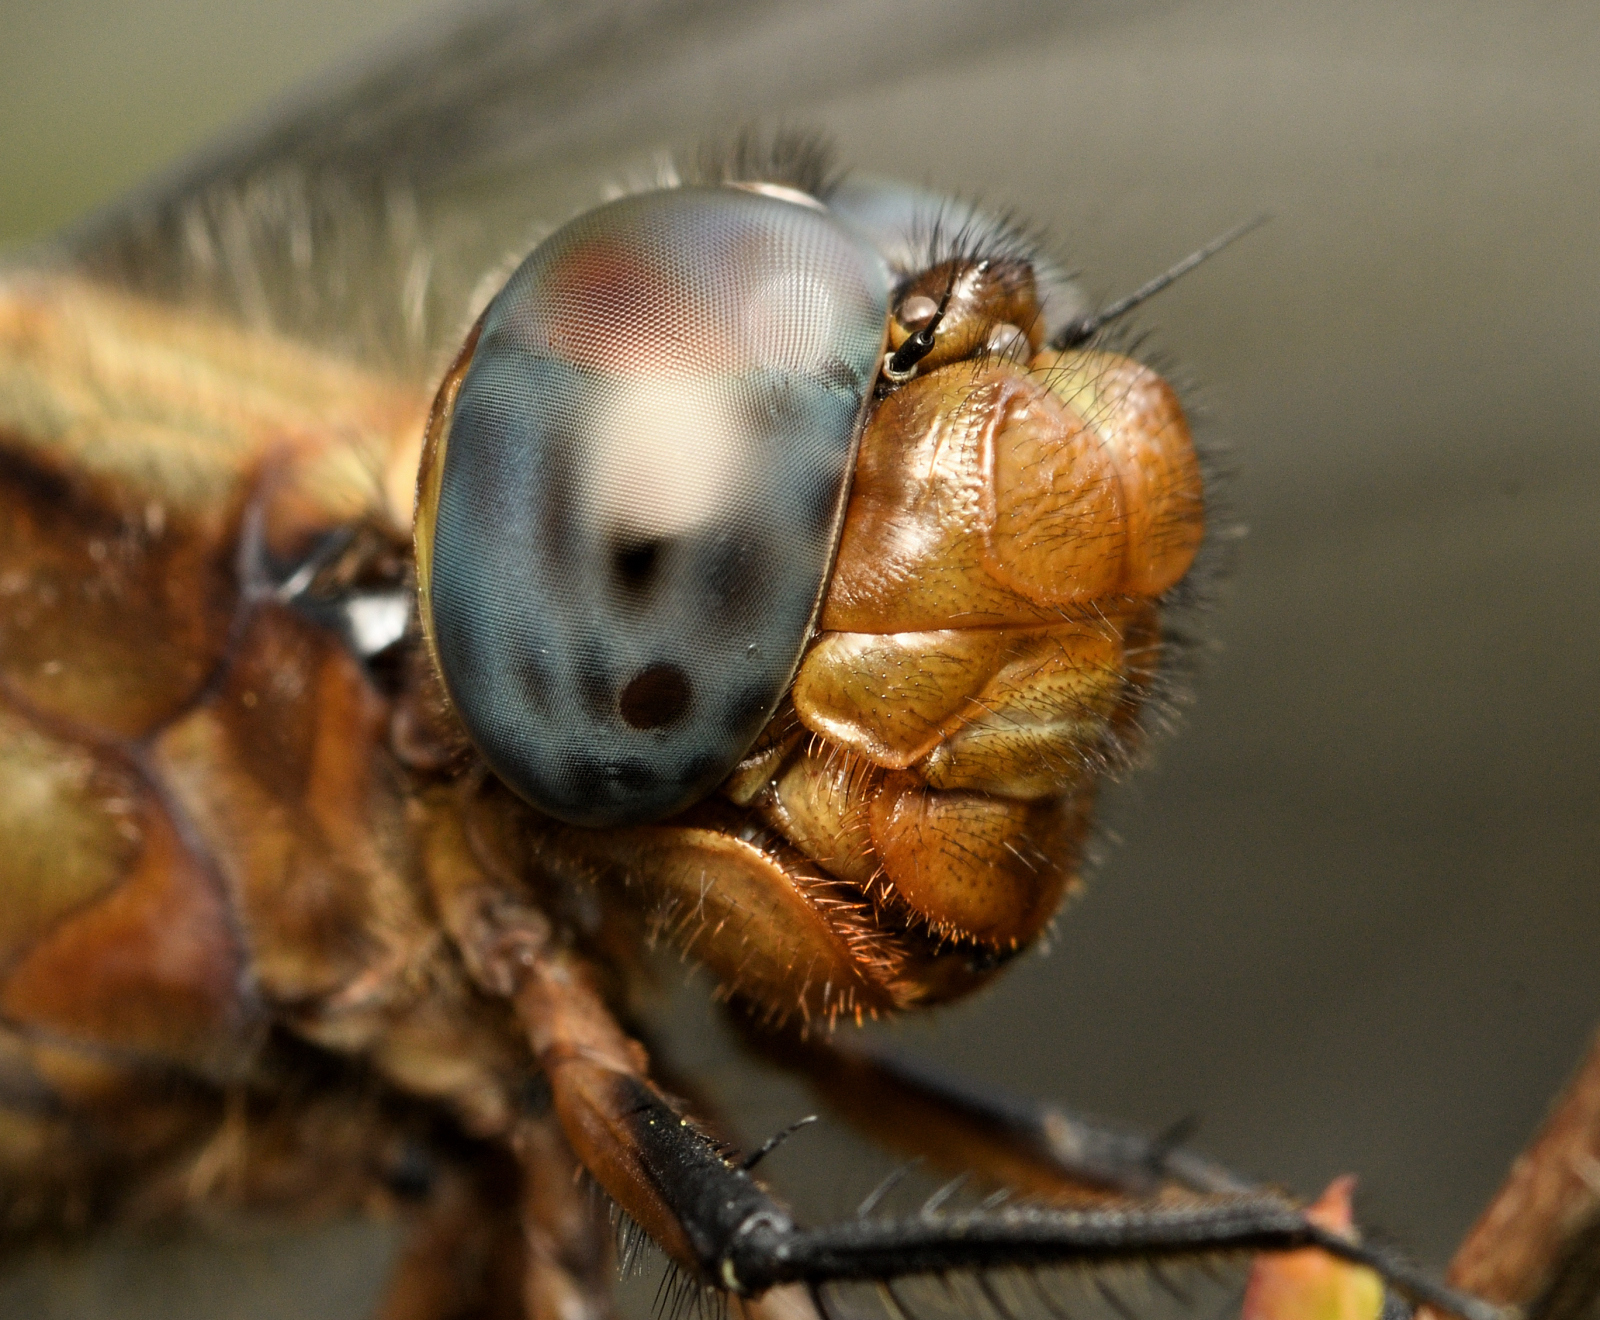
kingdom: Animalia
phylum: Arthropoda
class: Insecta
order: Odonata
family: Libellulidae
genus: Orthetrum
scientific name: Orthetrum pruinosum
